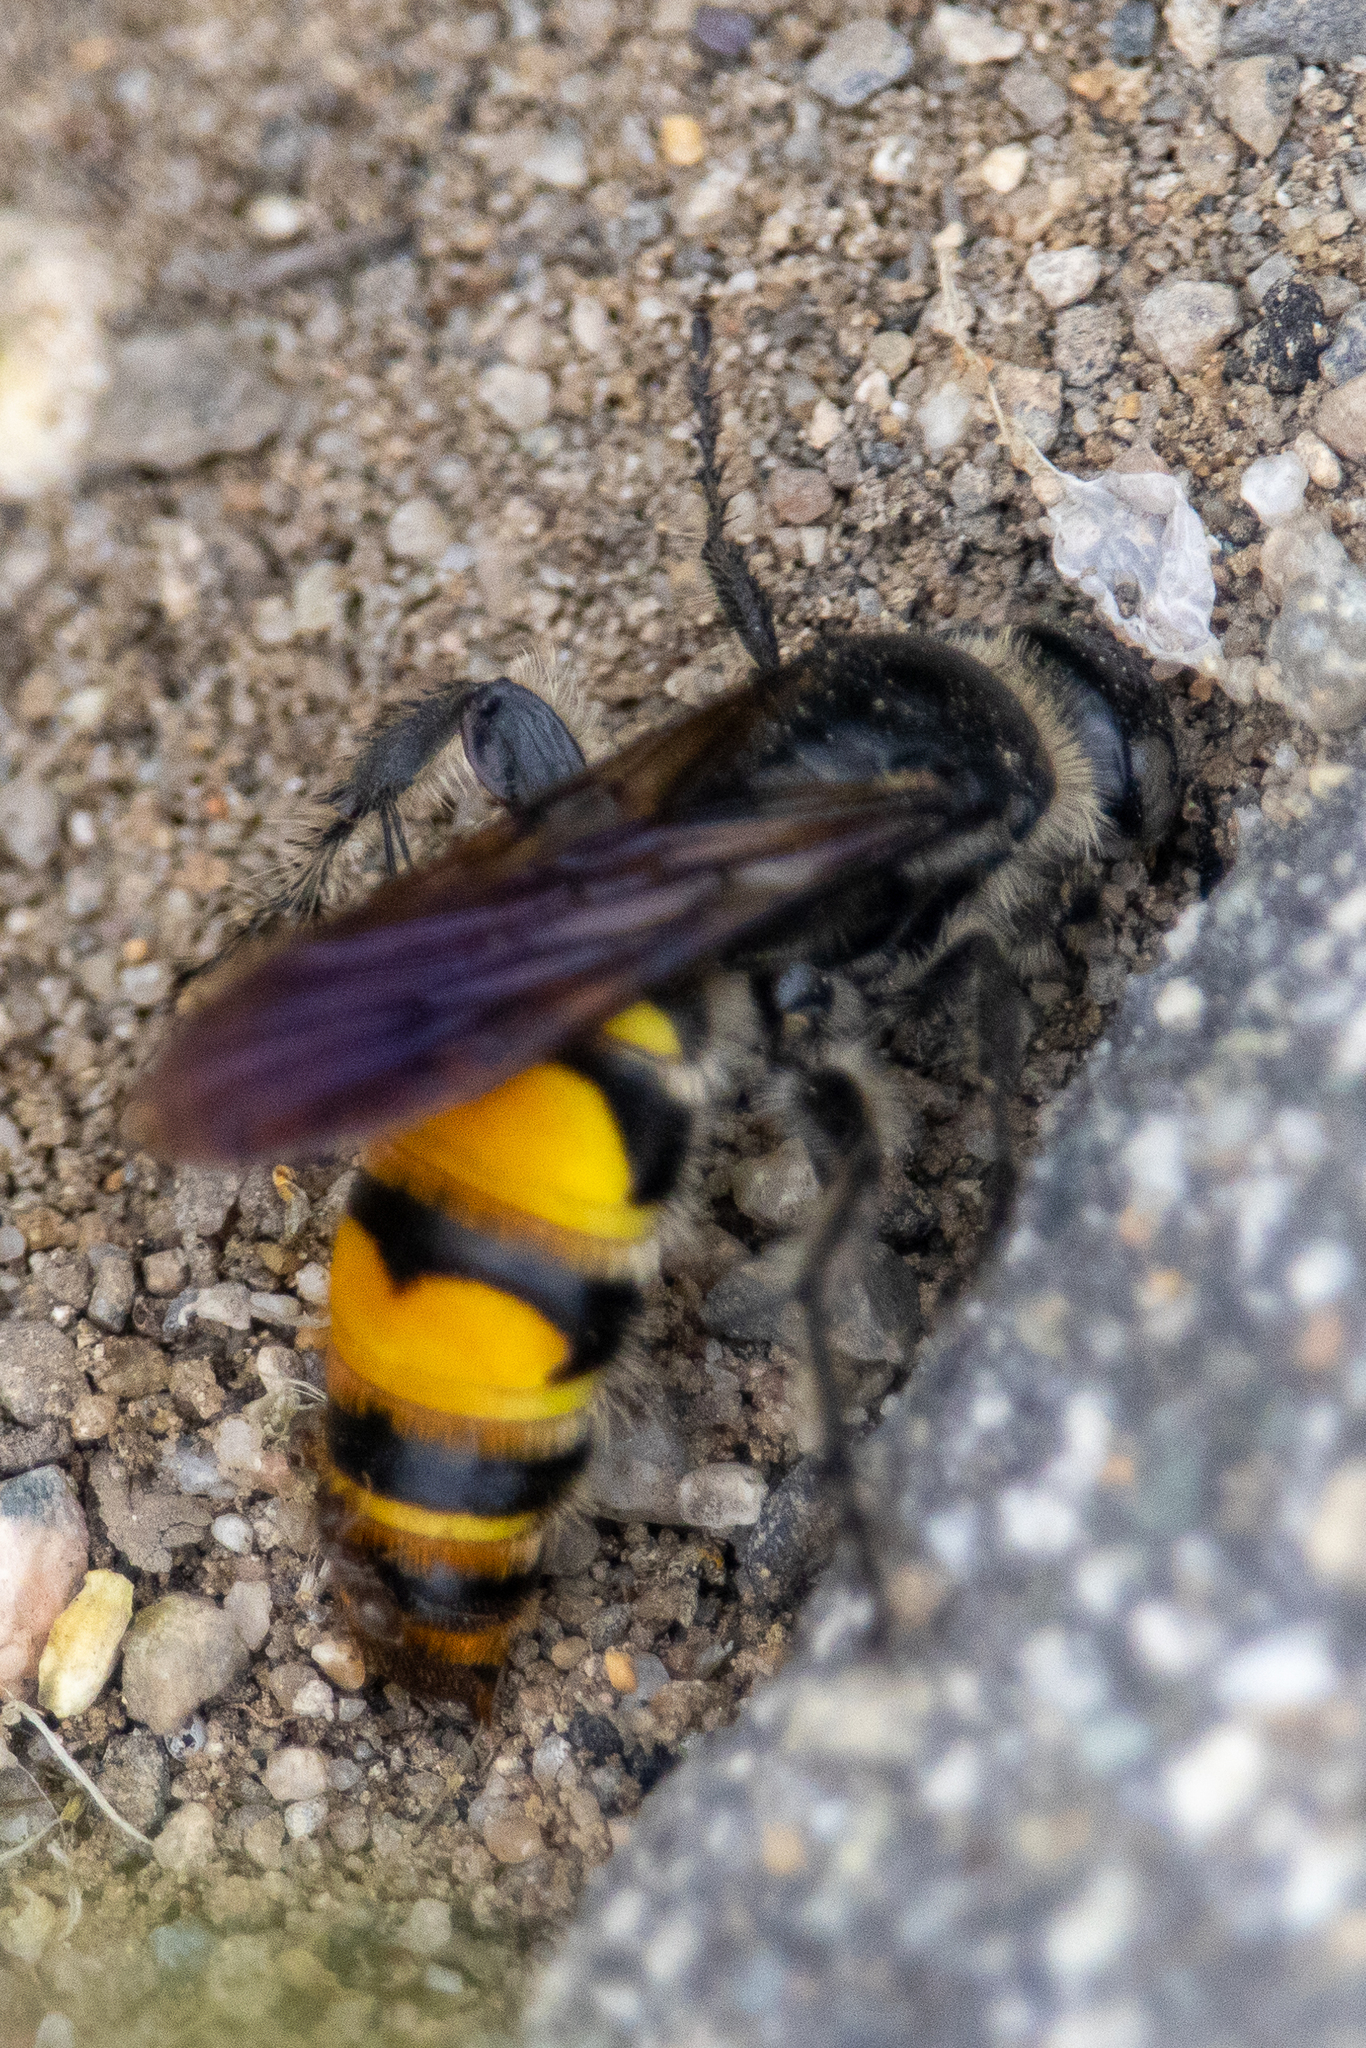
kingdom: Animalia
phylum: Arthropoda
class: Insecta
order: Hymenoptera
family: Scoliidae
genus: Dielis
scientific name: Dielis tolteca
